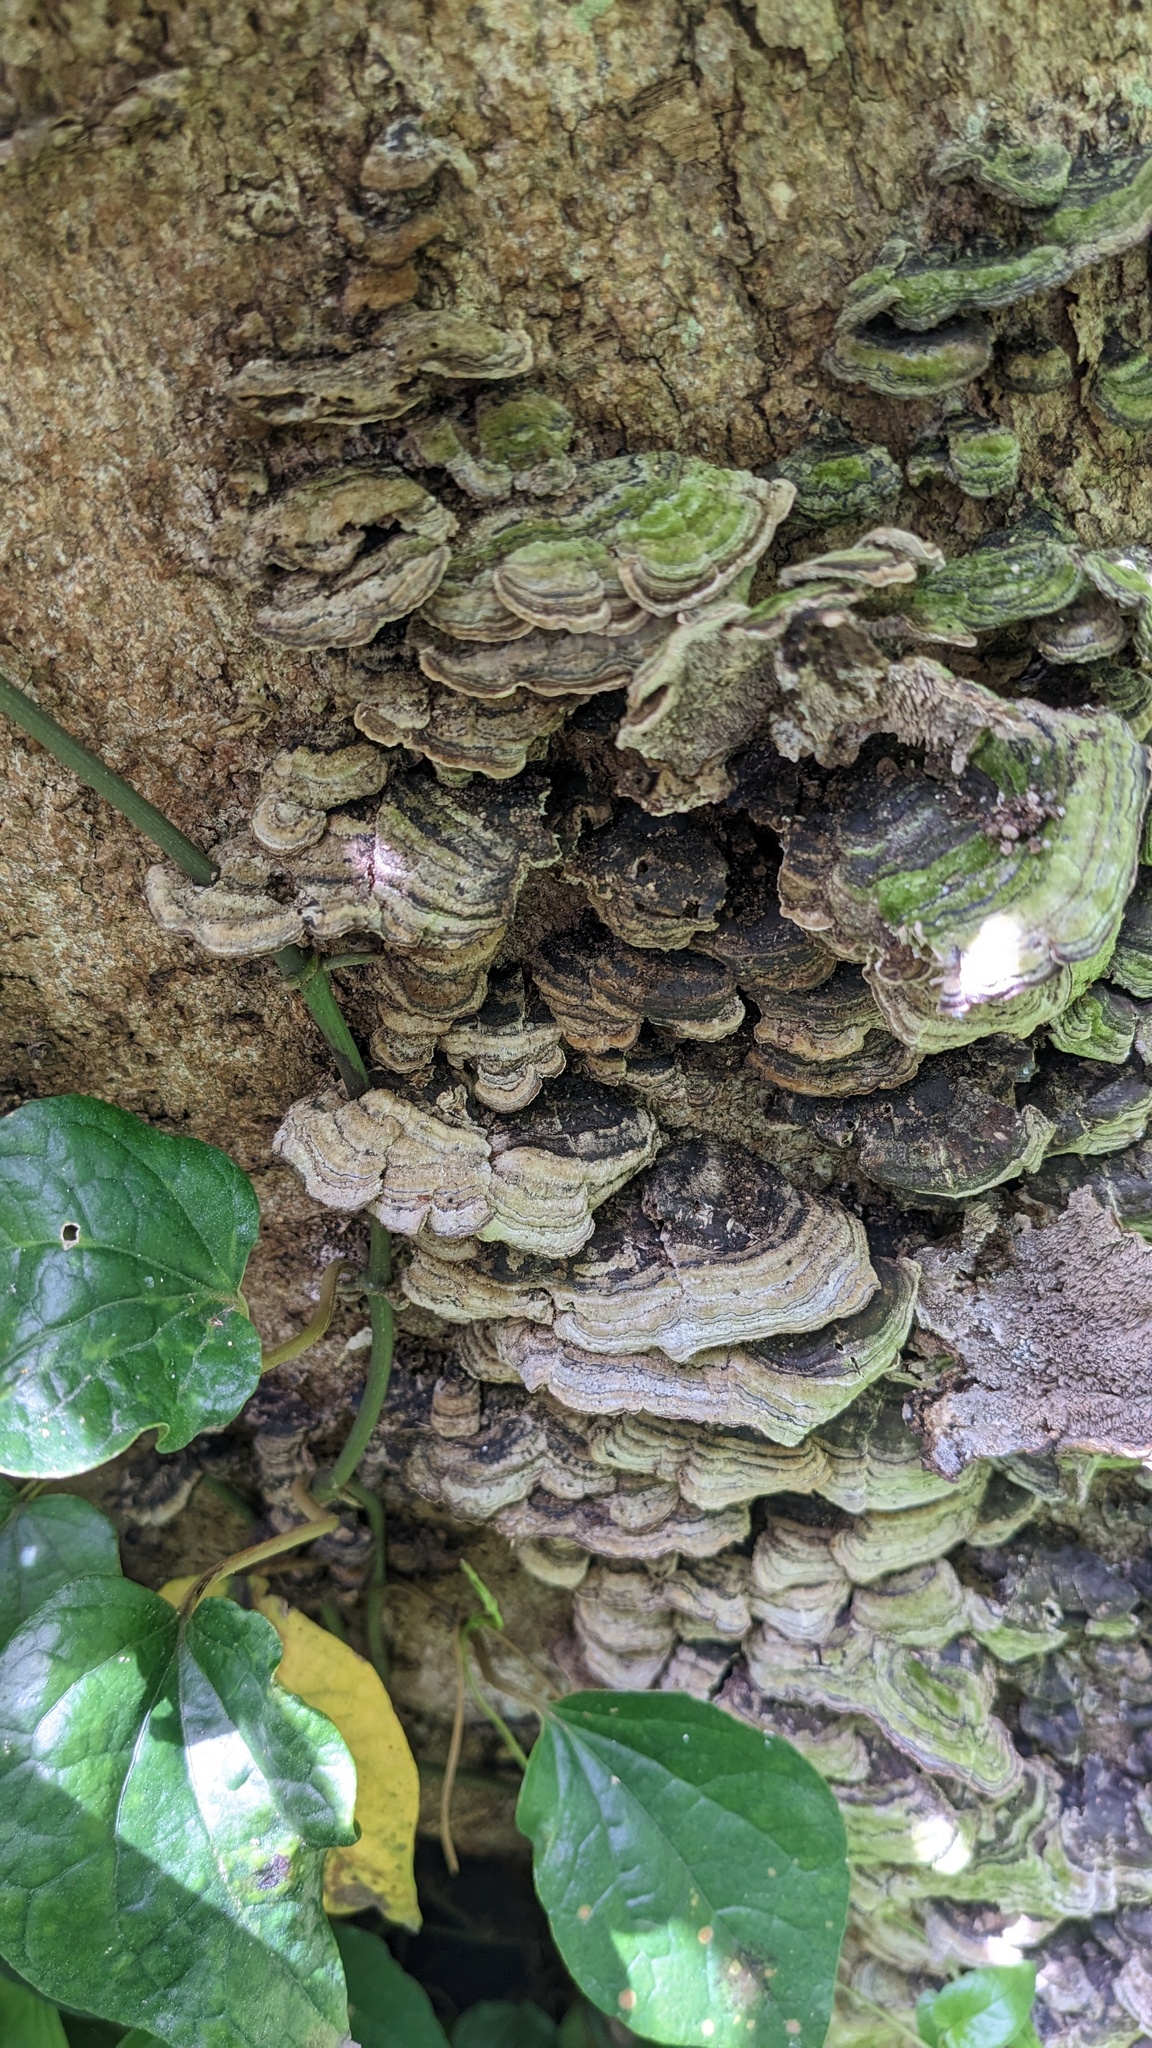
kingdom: Fungi
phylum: Basidiomycota
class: Agaricomycetes
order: Polyporales
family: Cerrenaceae
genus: Cerrena
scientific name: Cerrena unicolor
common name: Mossy maze polypore
